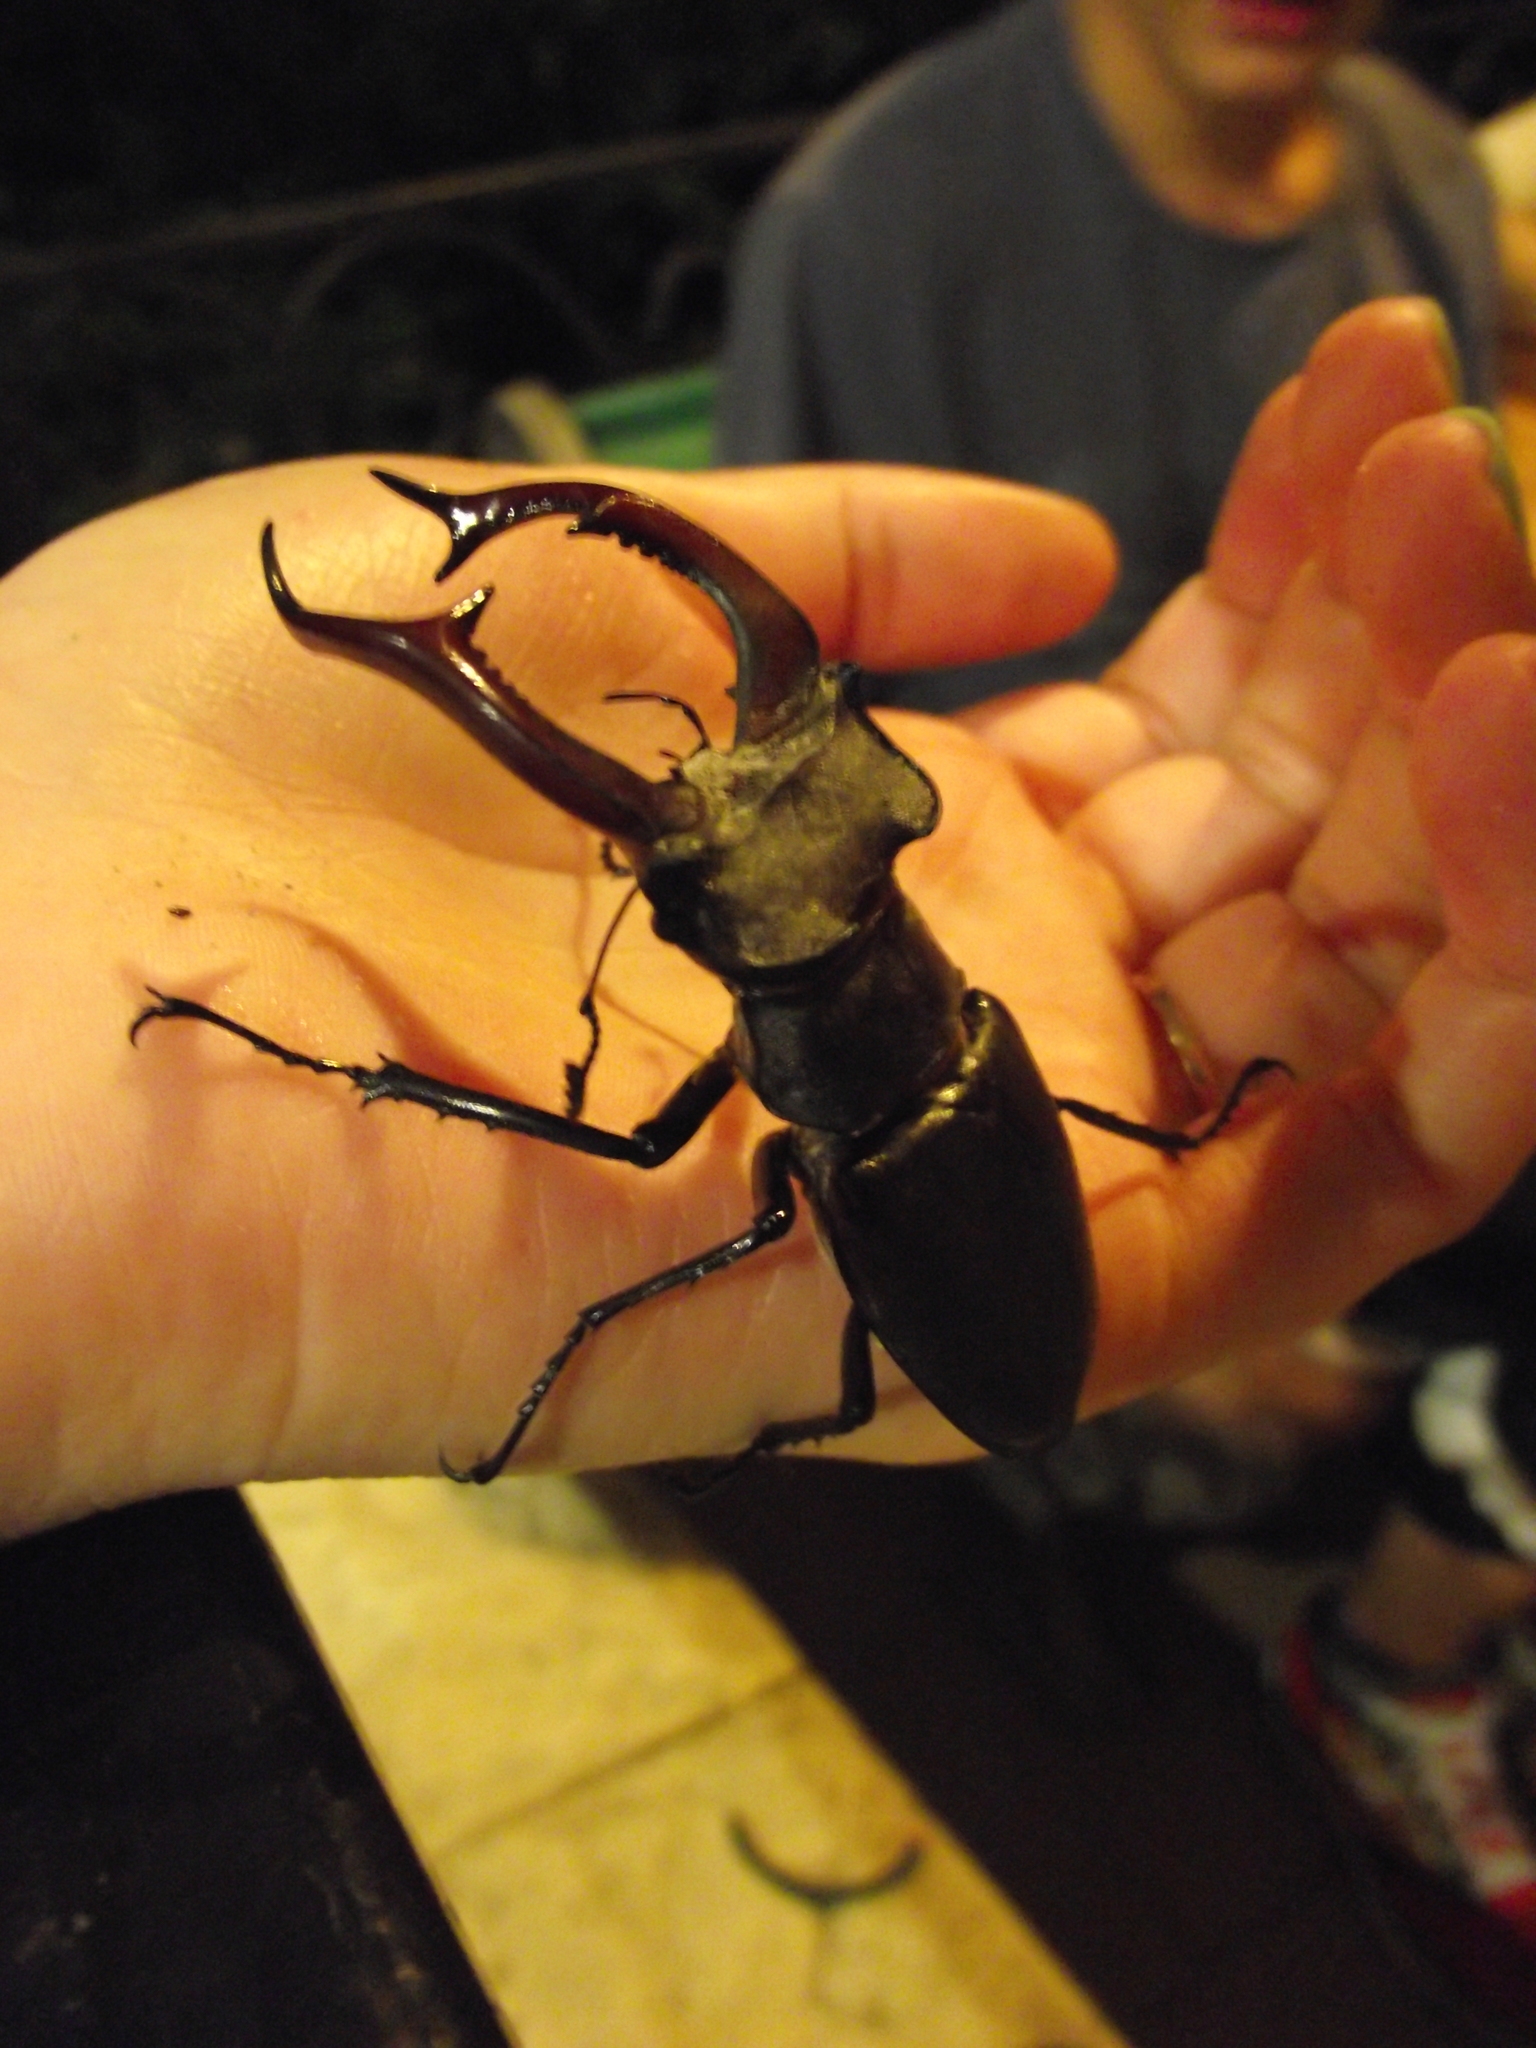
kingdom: Animalia
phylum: Arthropoda
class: Insecta
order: Coleoptera
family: Lucanidae
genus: Lucanus
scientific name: Lucanus cervus
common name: Stag beetle
